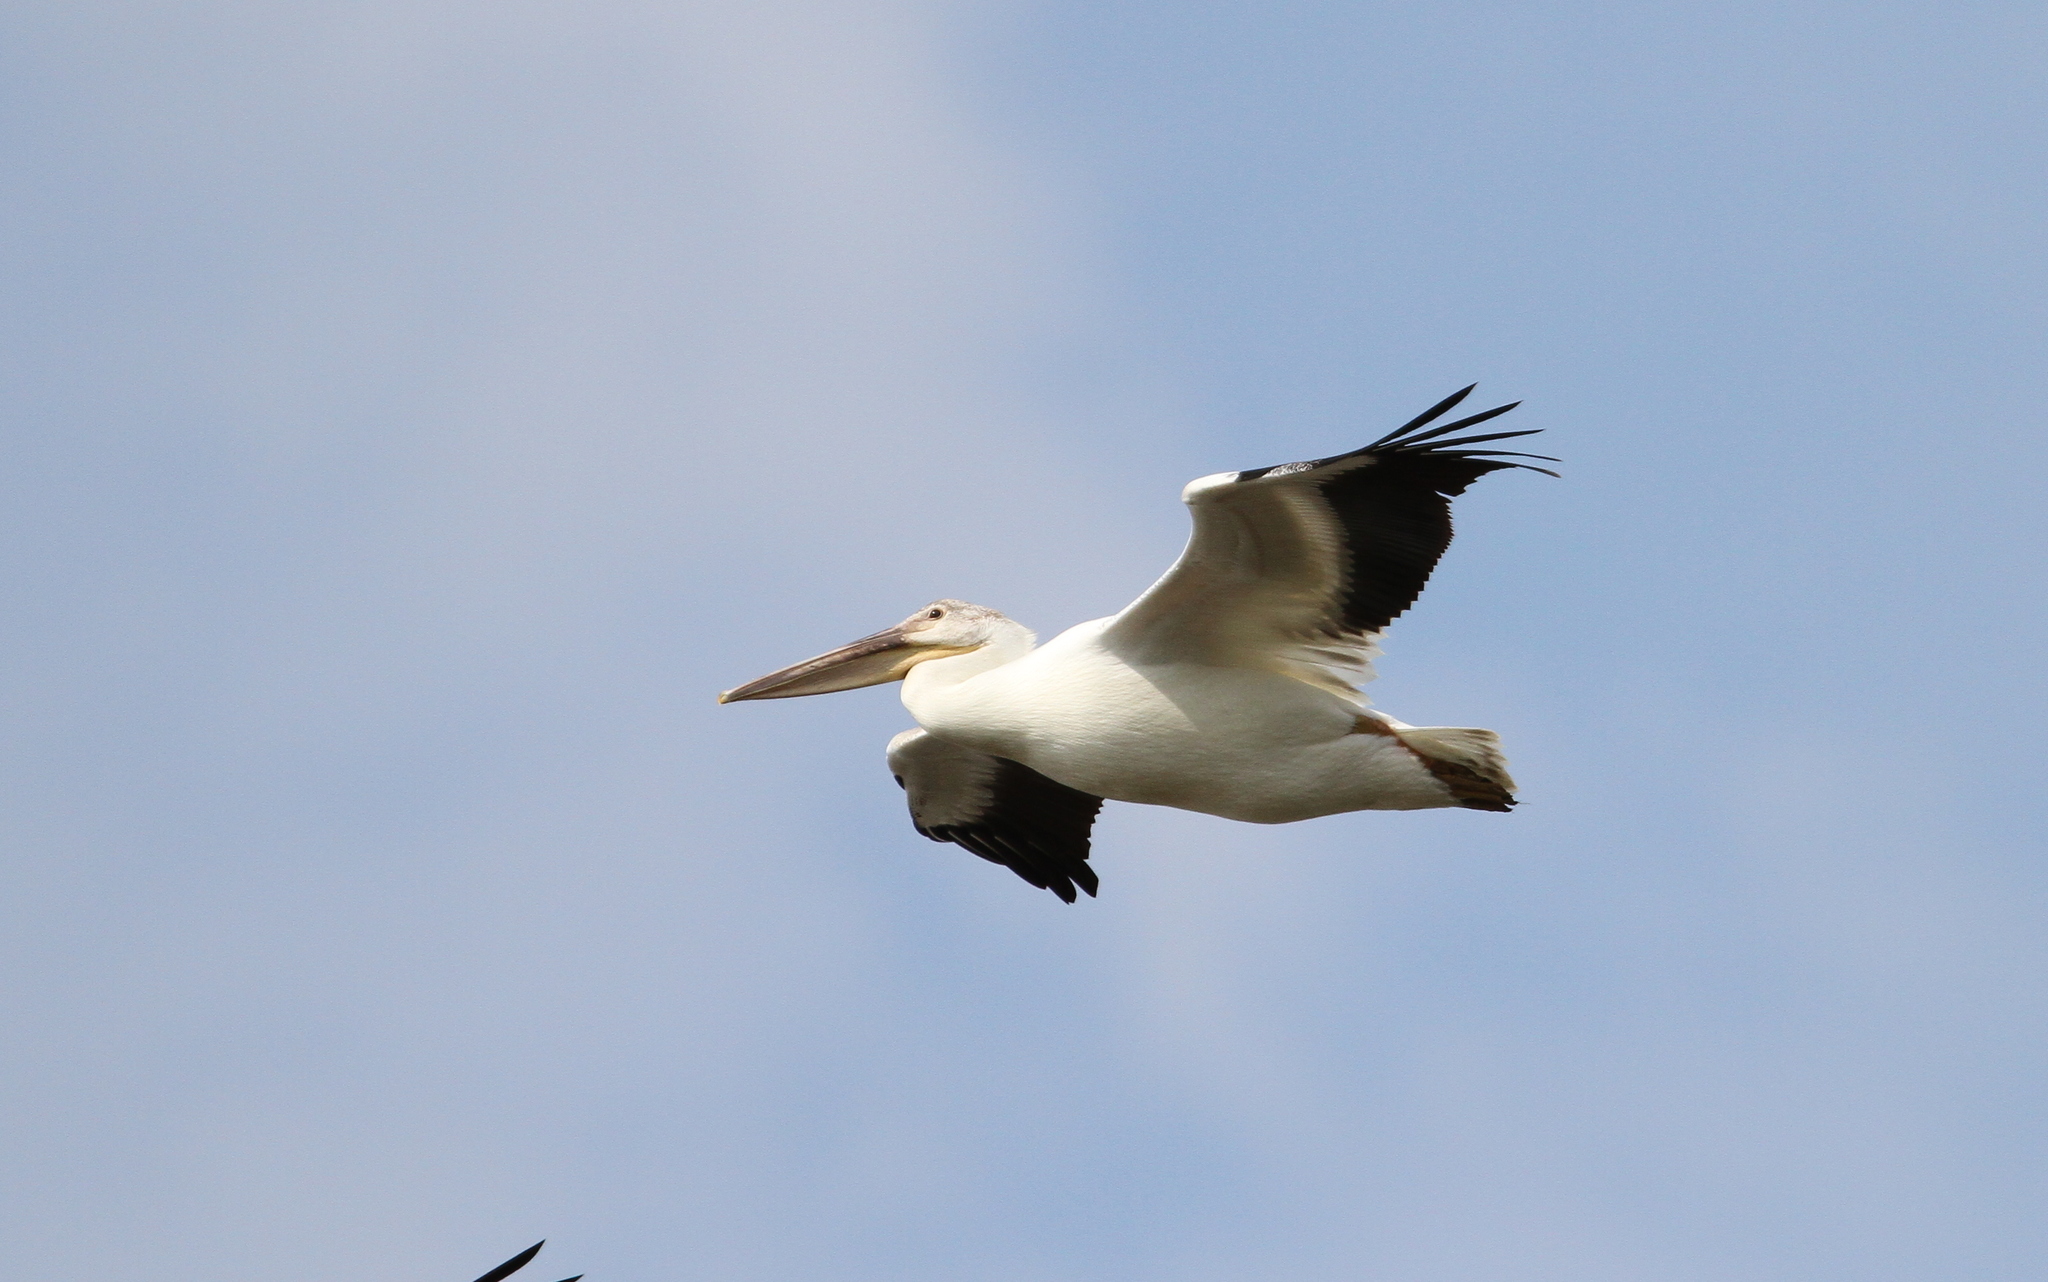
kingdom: Animalia
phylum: Chordata
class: Aves
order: Pelecaniformes
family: Pelecanidae
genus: Pelecanus
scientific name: Pelecanus erythrorhynchos
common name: American white pelican
